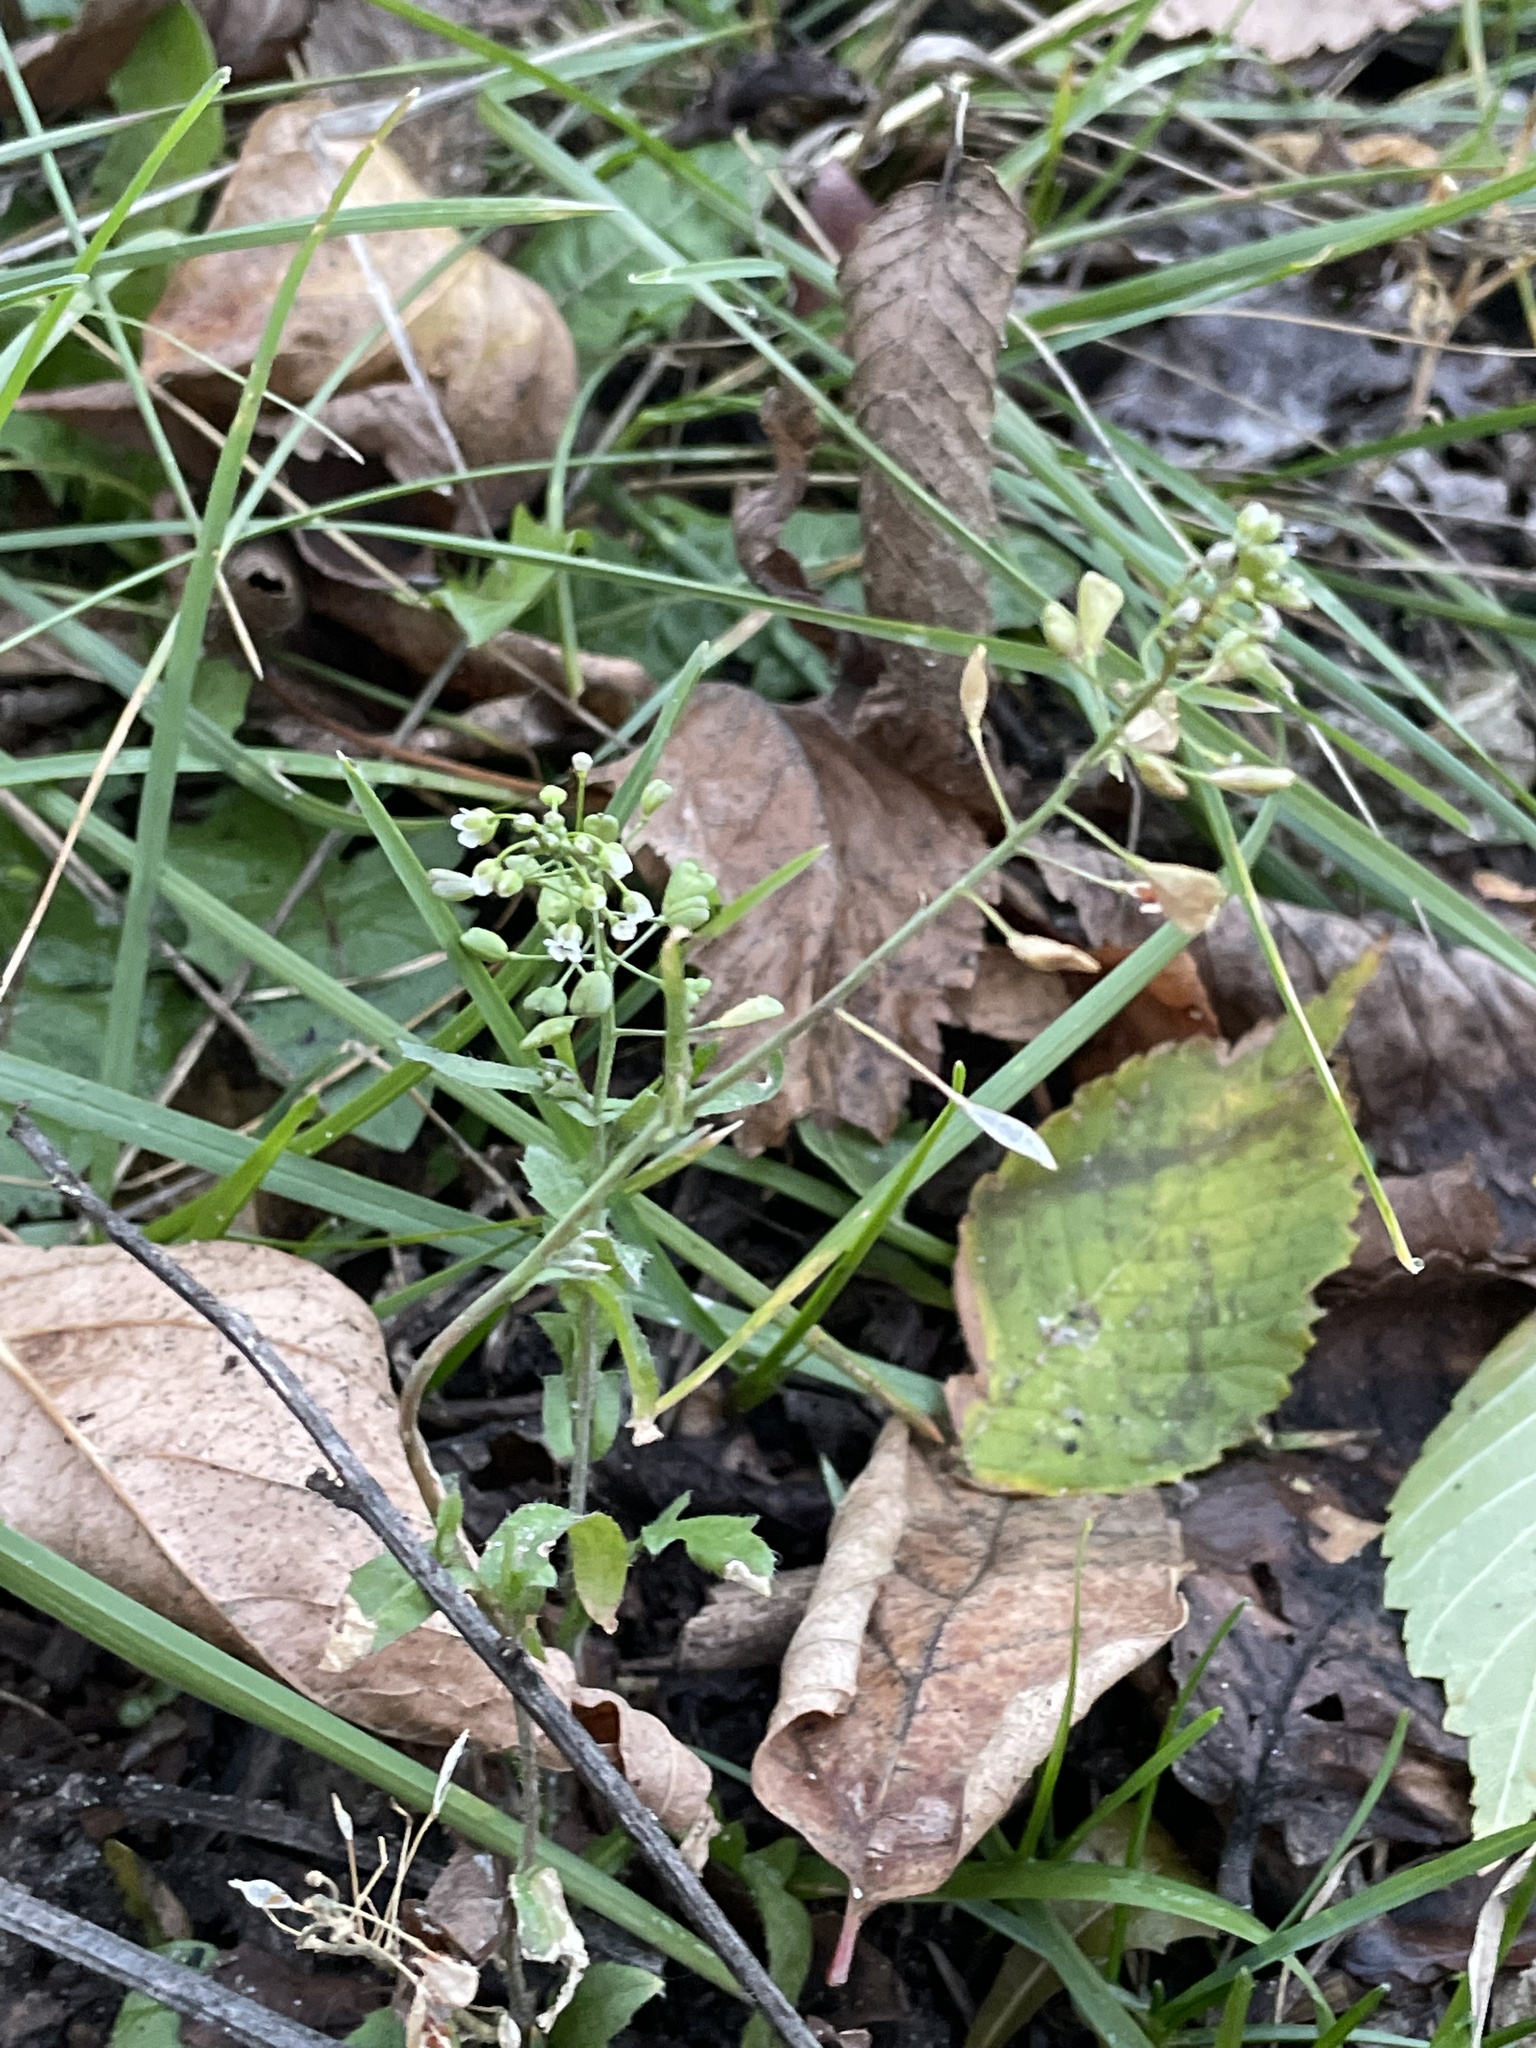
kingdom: Plantae
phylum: Tracheophyta
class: Magnoliopsida
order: Brassicales
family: Brassicaceae
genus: Capsella
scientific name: Capsella bursa-pastoris
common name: Shepherd's purse
